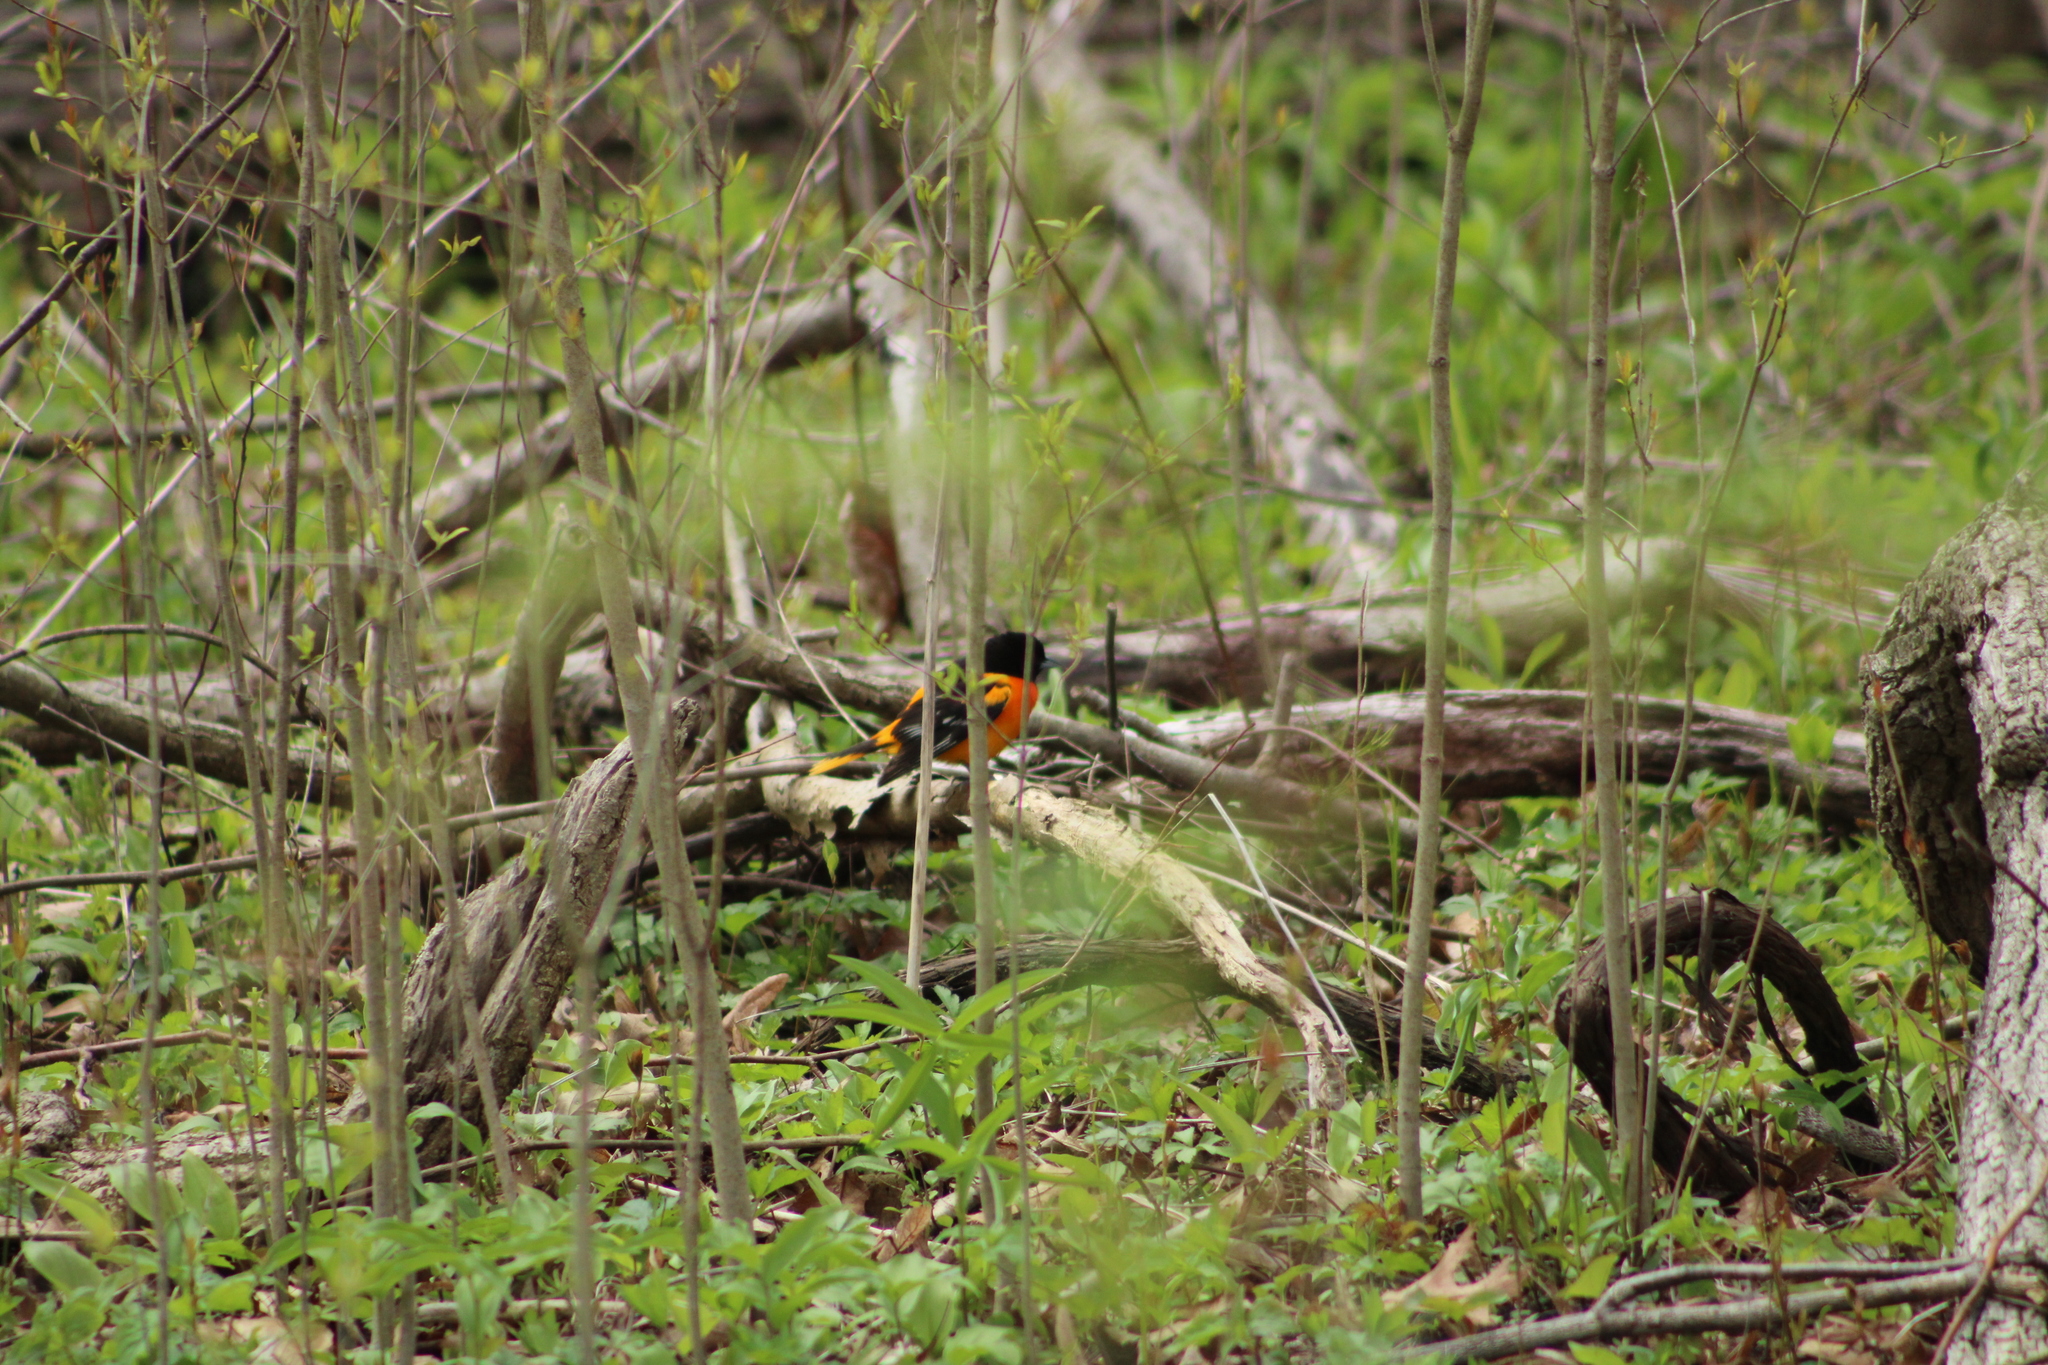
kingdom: Animalia
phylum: Chordata
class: Aves
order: Passeriformes
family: Icteridae
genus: Icterus
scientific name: Icterus galbula
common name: Baltimore oriole
